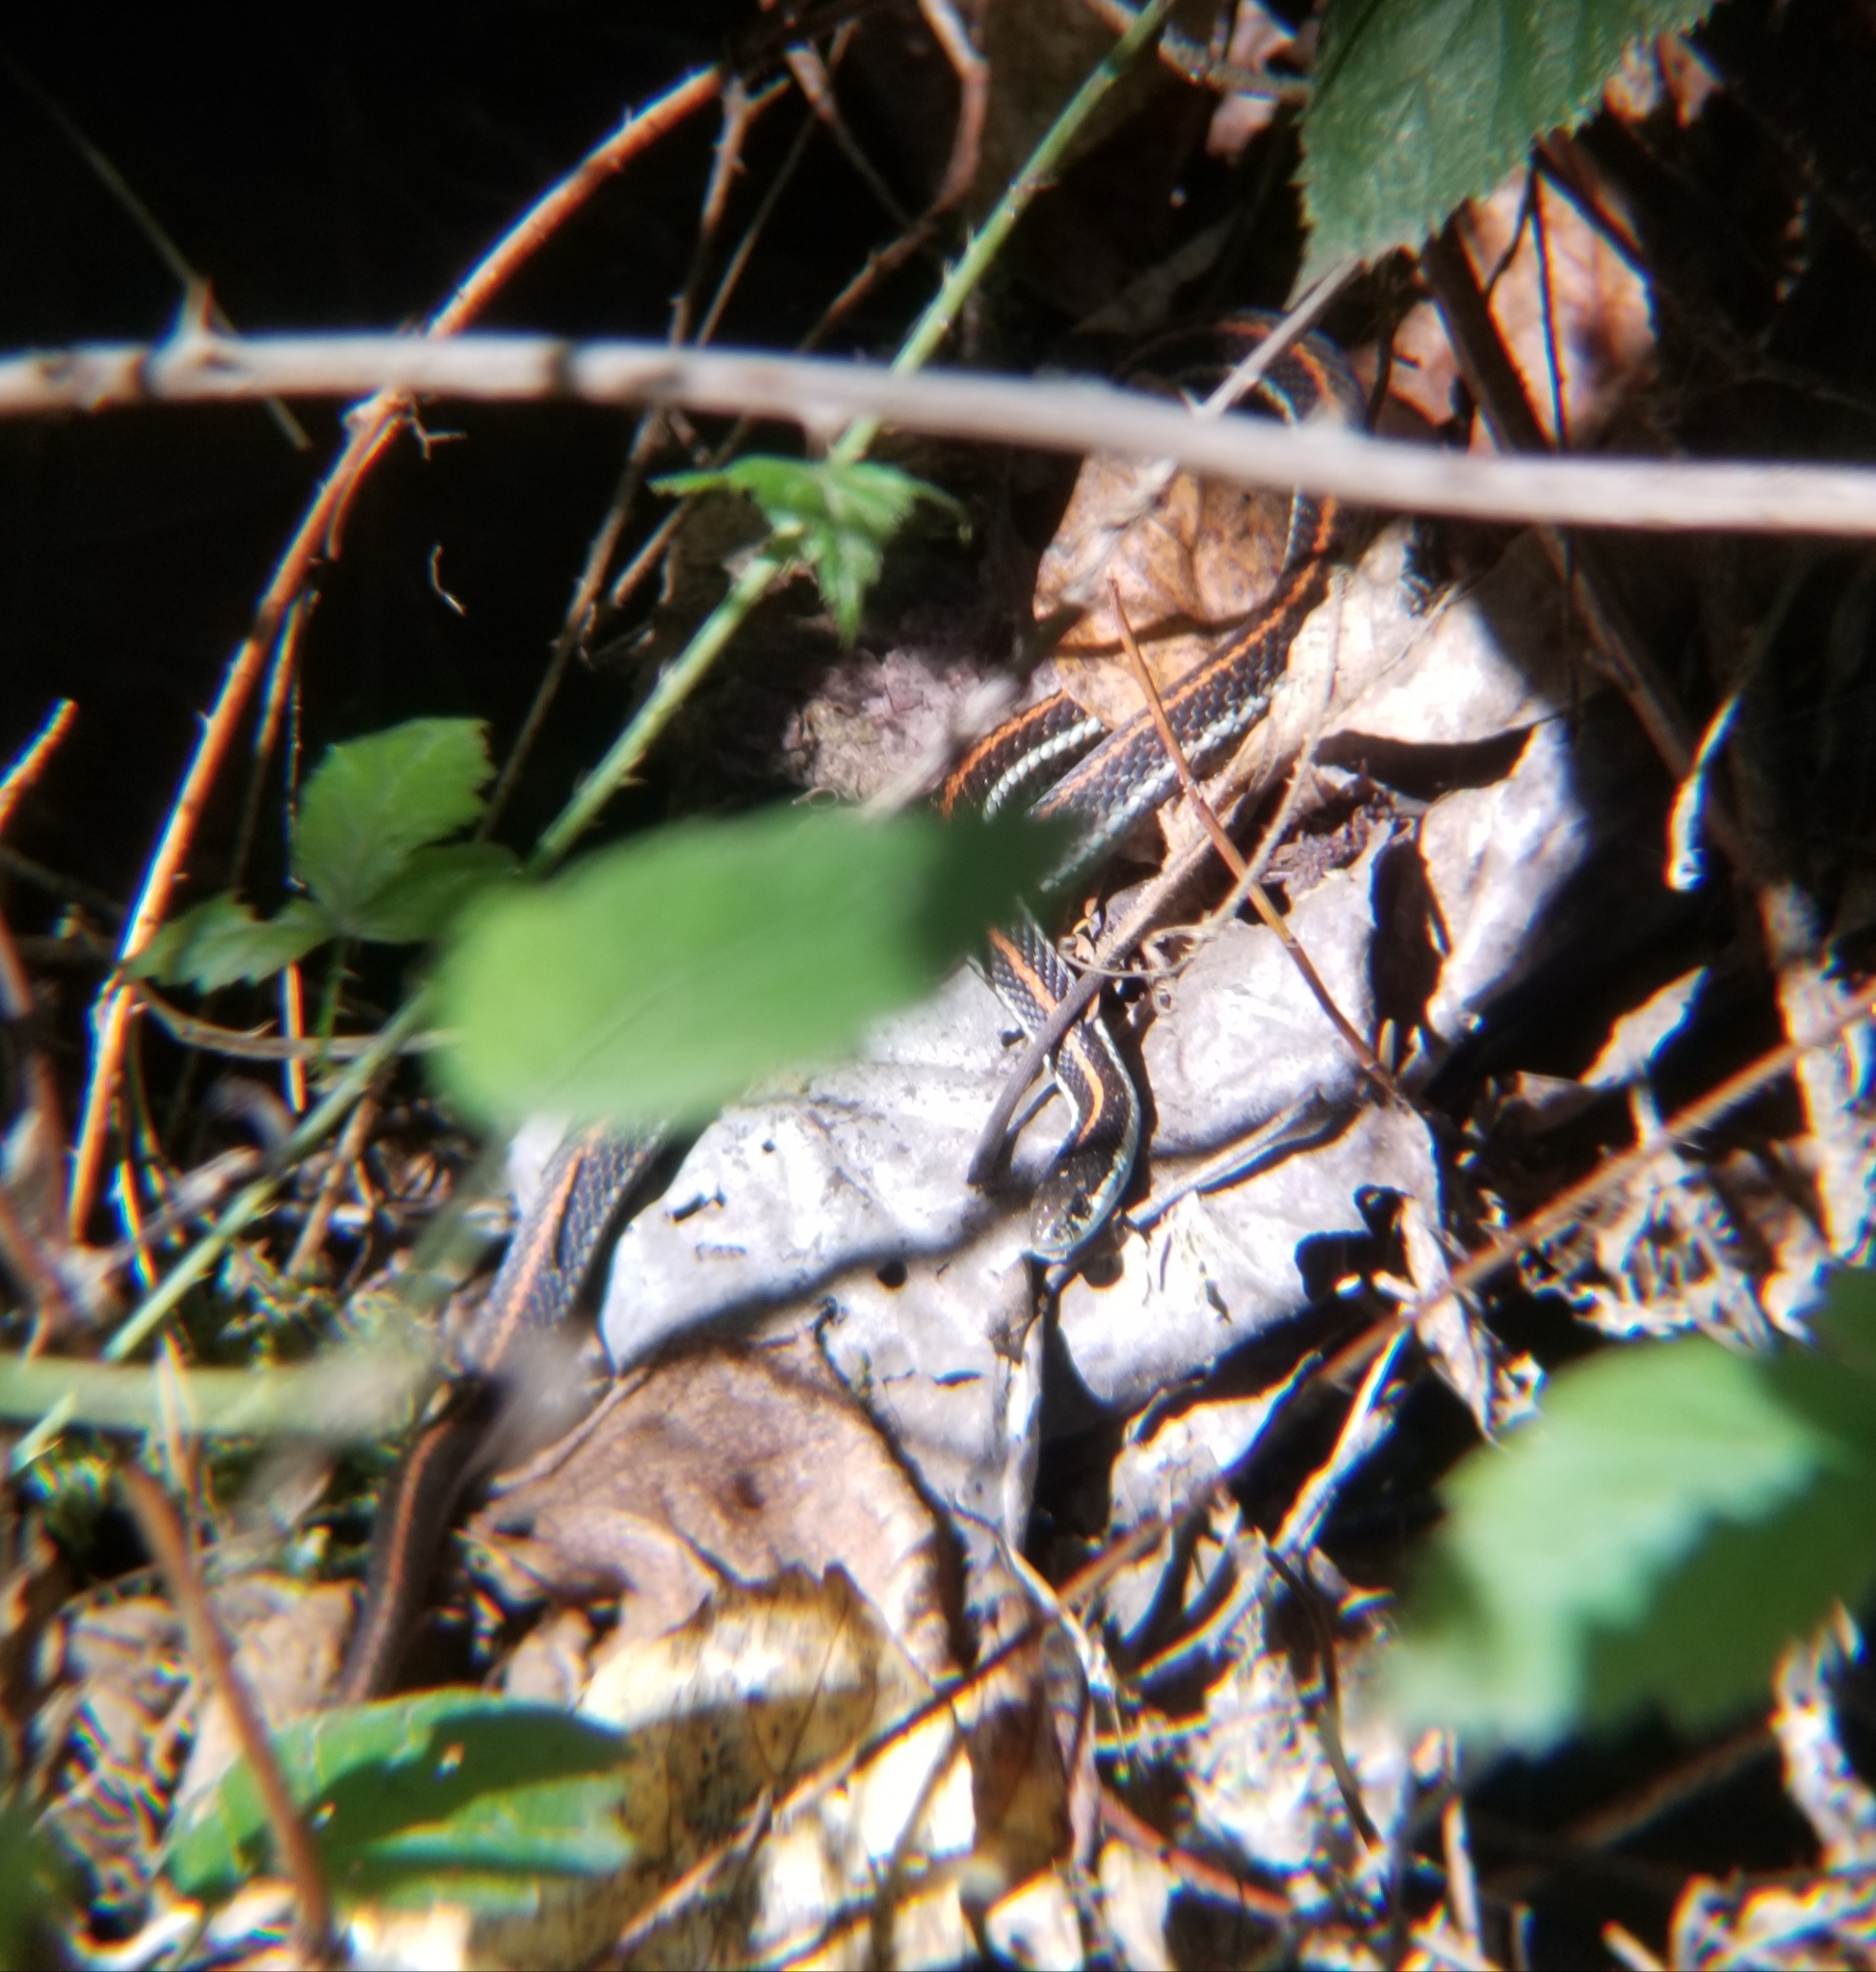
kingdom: Animalia
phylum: Chordata
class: Squamata
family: Colubridae
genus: Thamnophis
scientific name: Thamnophis ordinoides
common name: Northwestern garter snake
